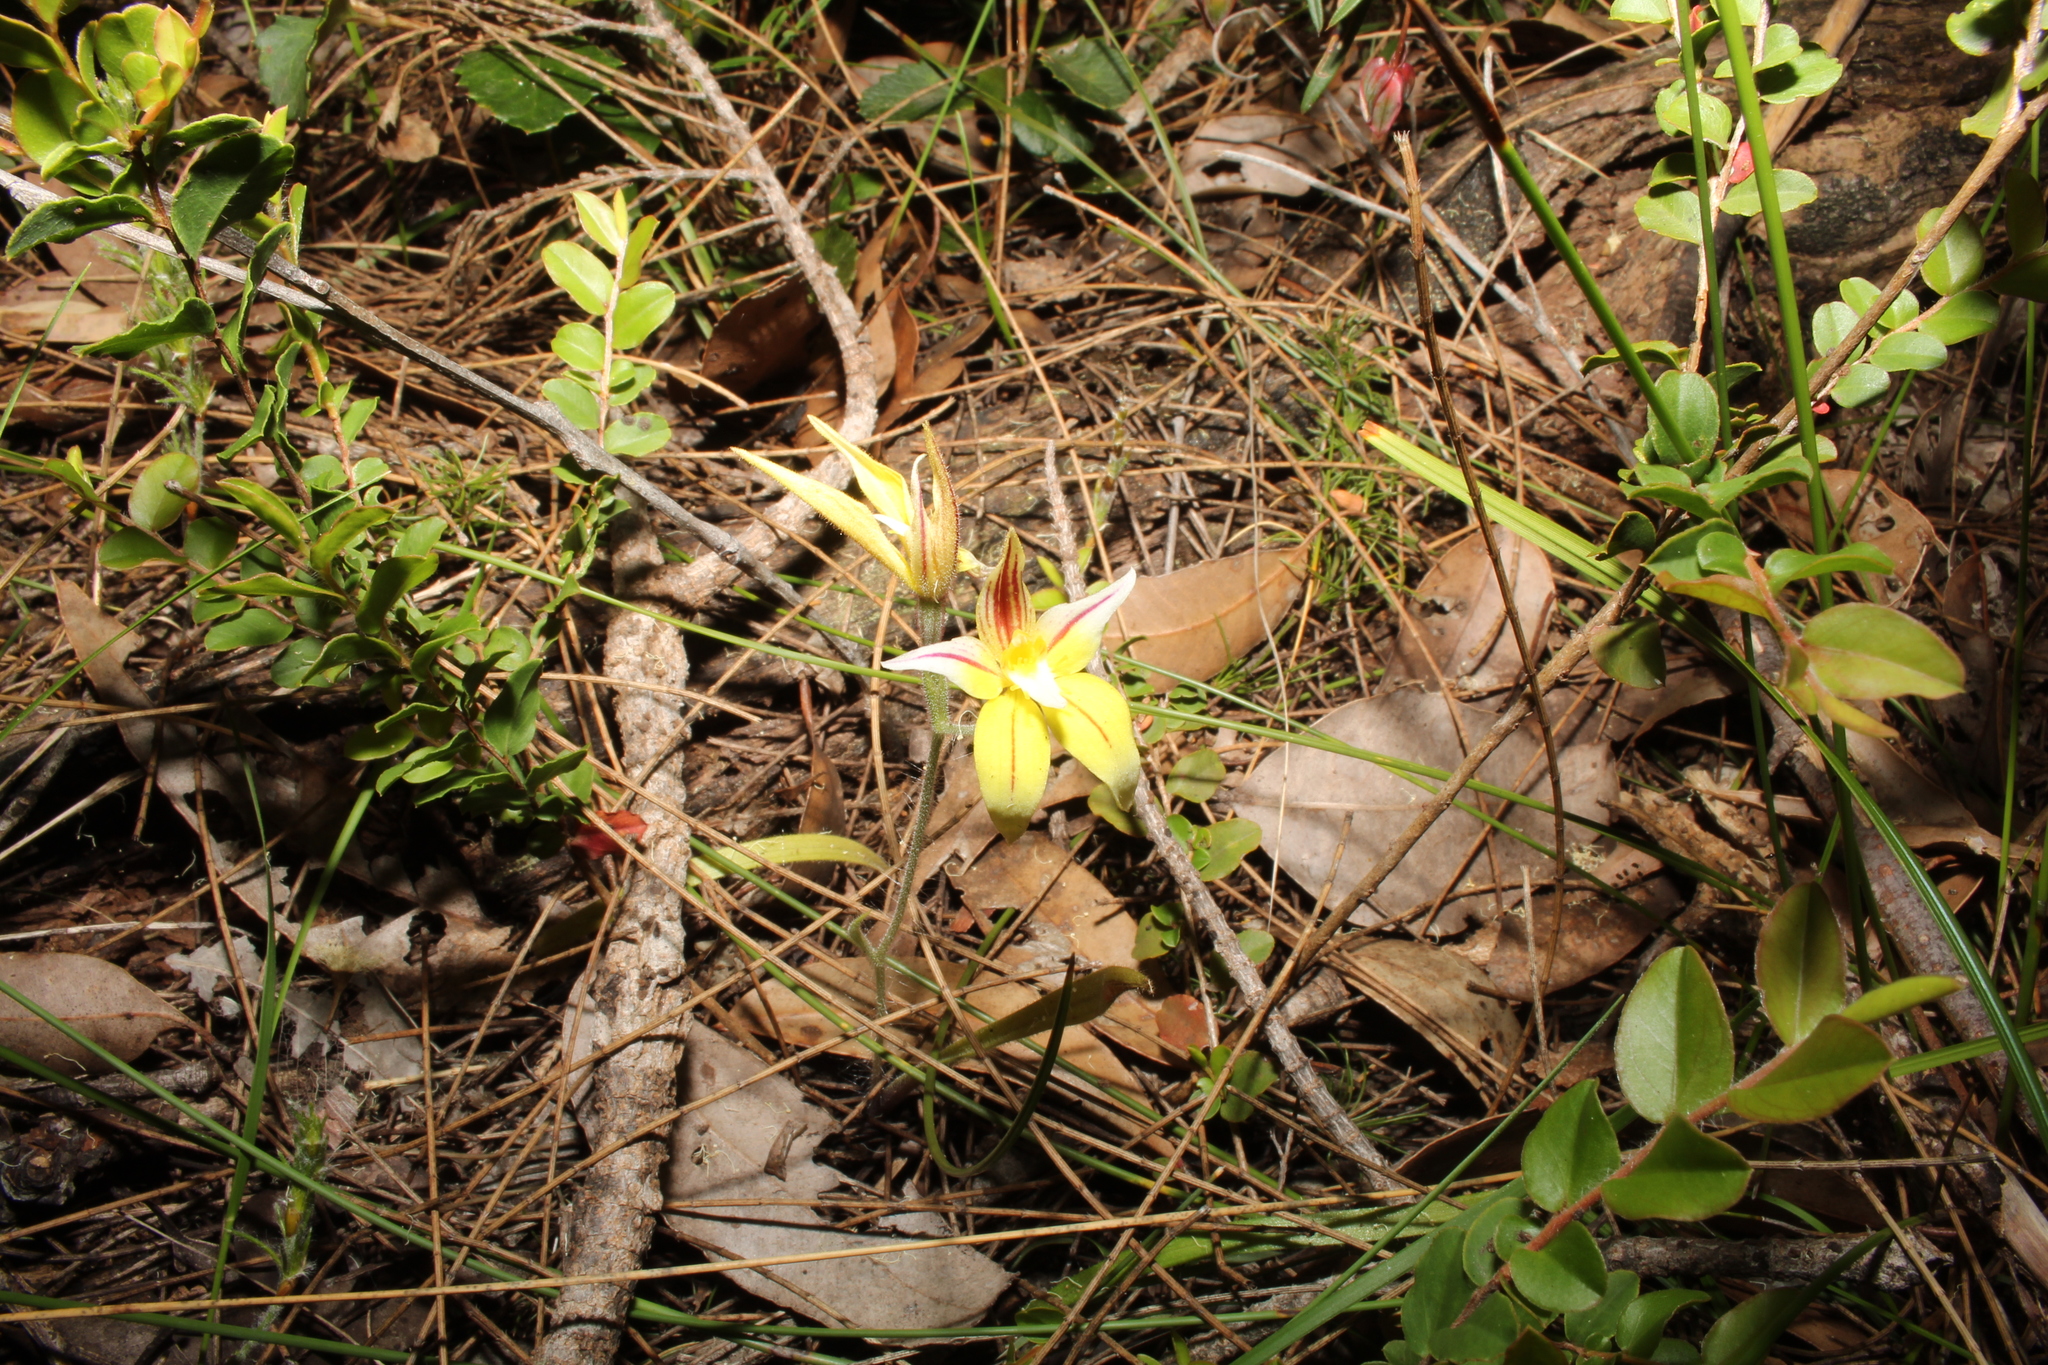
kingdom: Plantae
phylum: Tracheophyta
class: Liliopsida
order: Asparagales
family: Orchidaceae
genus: Caladenia
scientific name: Caladenia flava
